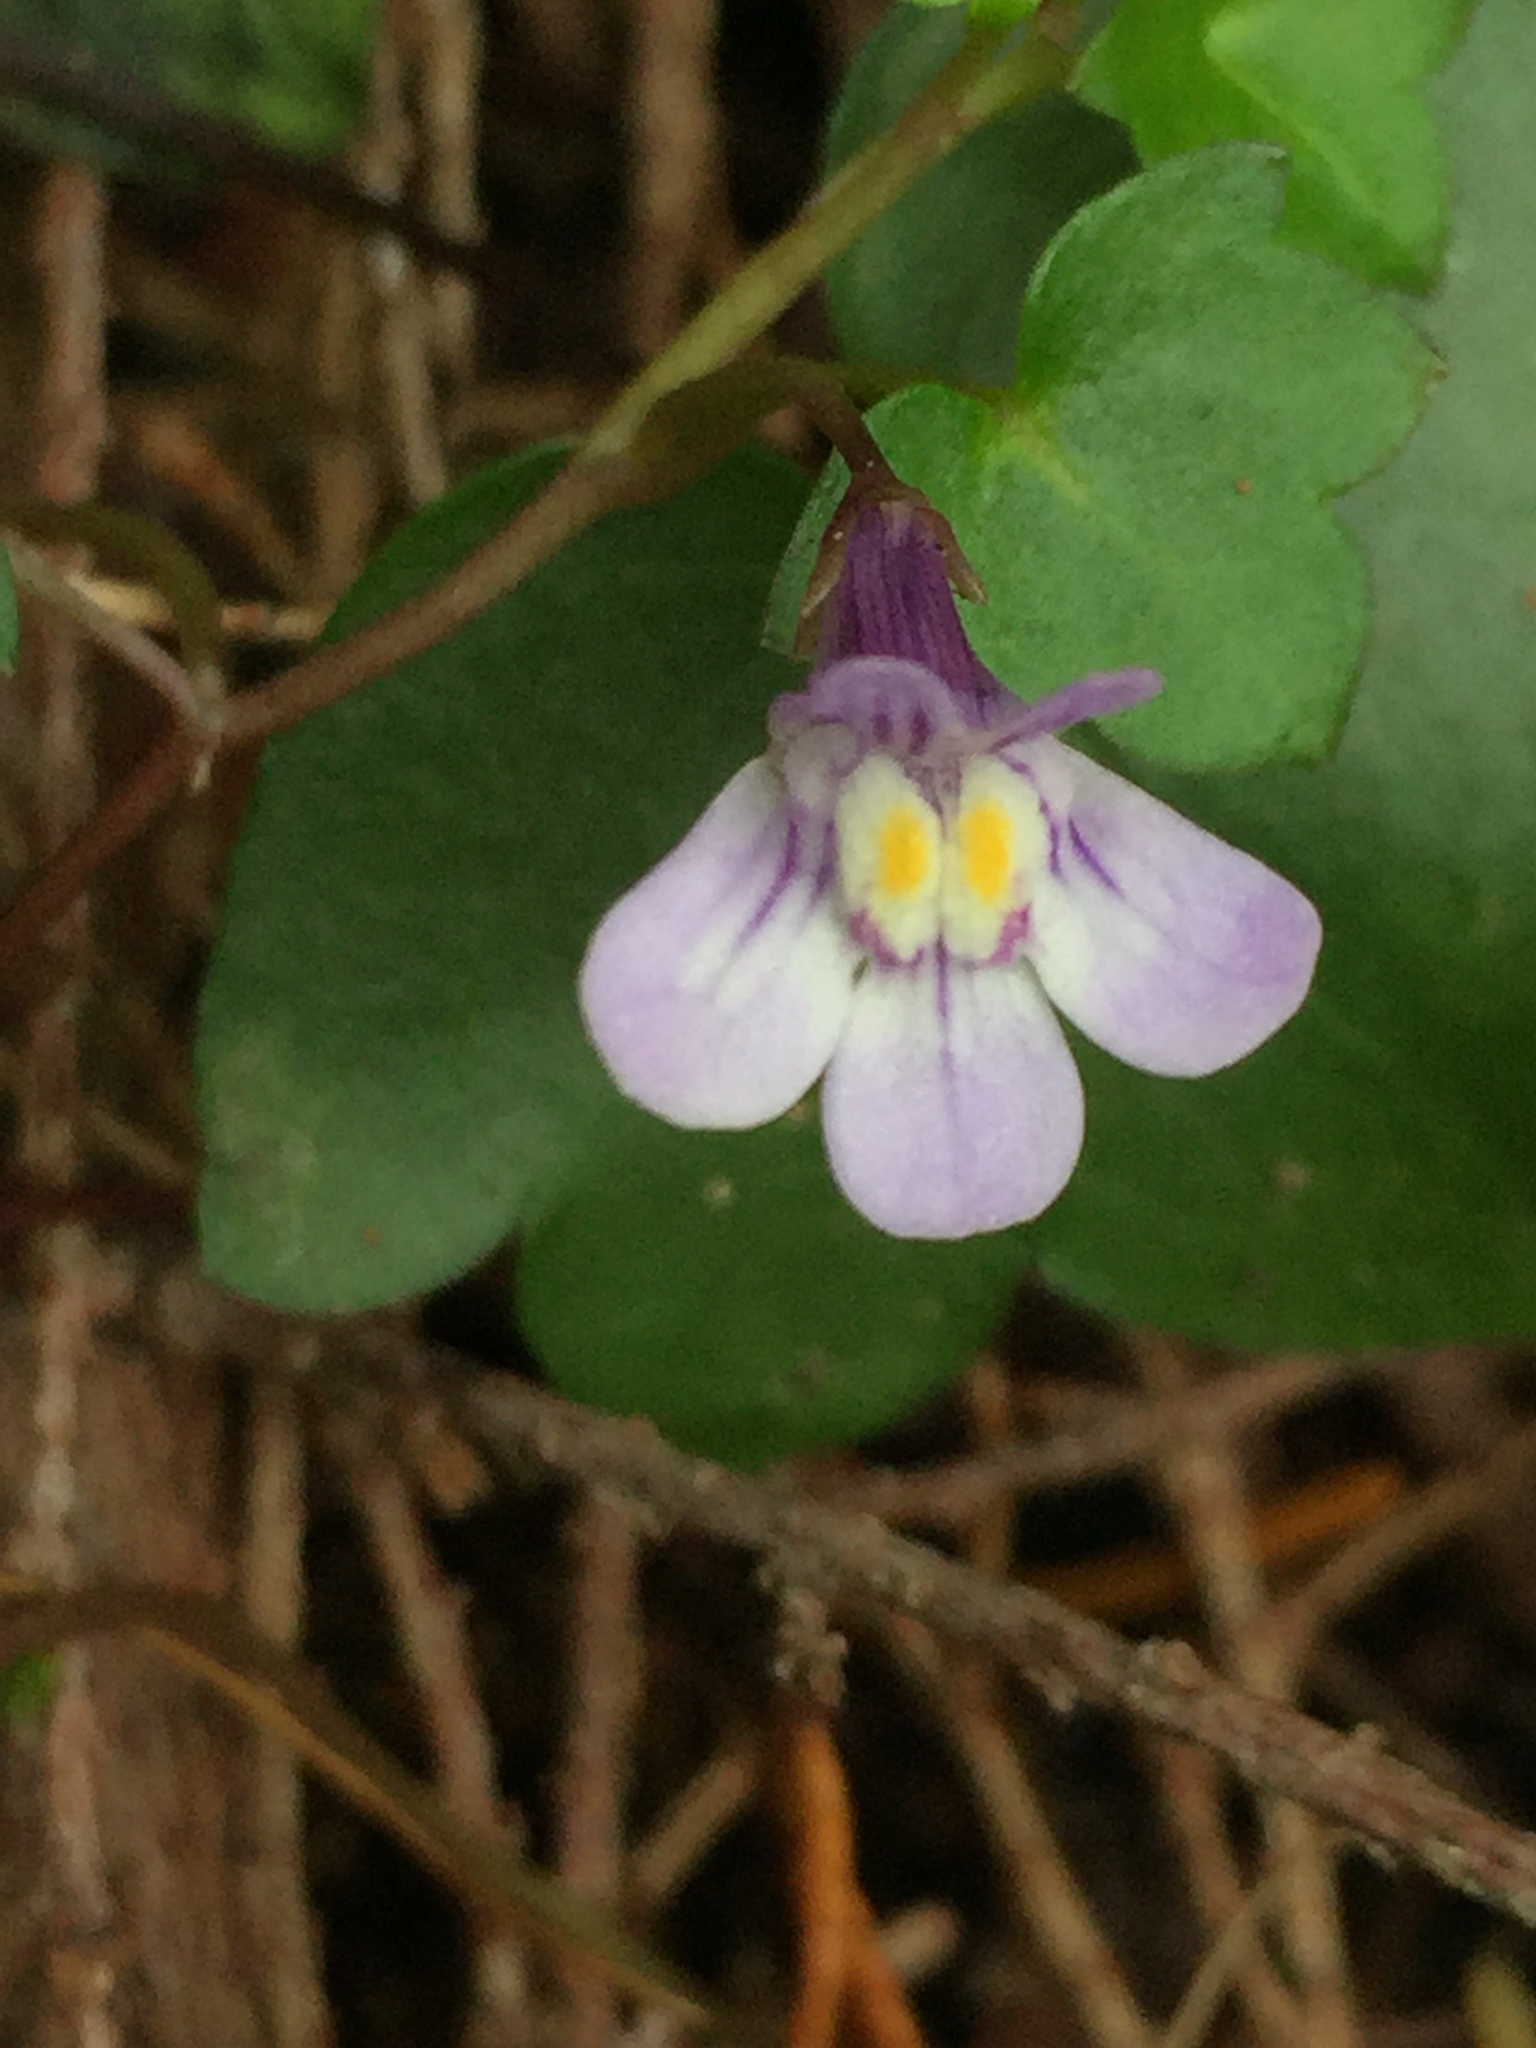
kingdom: Plantae
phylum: Tracheophyta
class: Magnoliopsida
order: Lamiales
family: Plantaginaceae
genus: Cymbalaria
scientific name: Cymbalaria muralis
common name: Ivy-leaved toadflax
